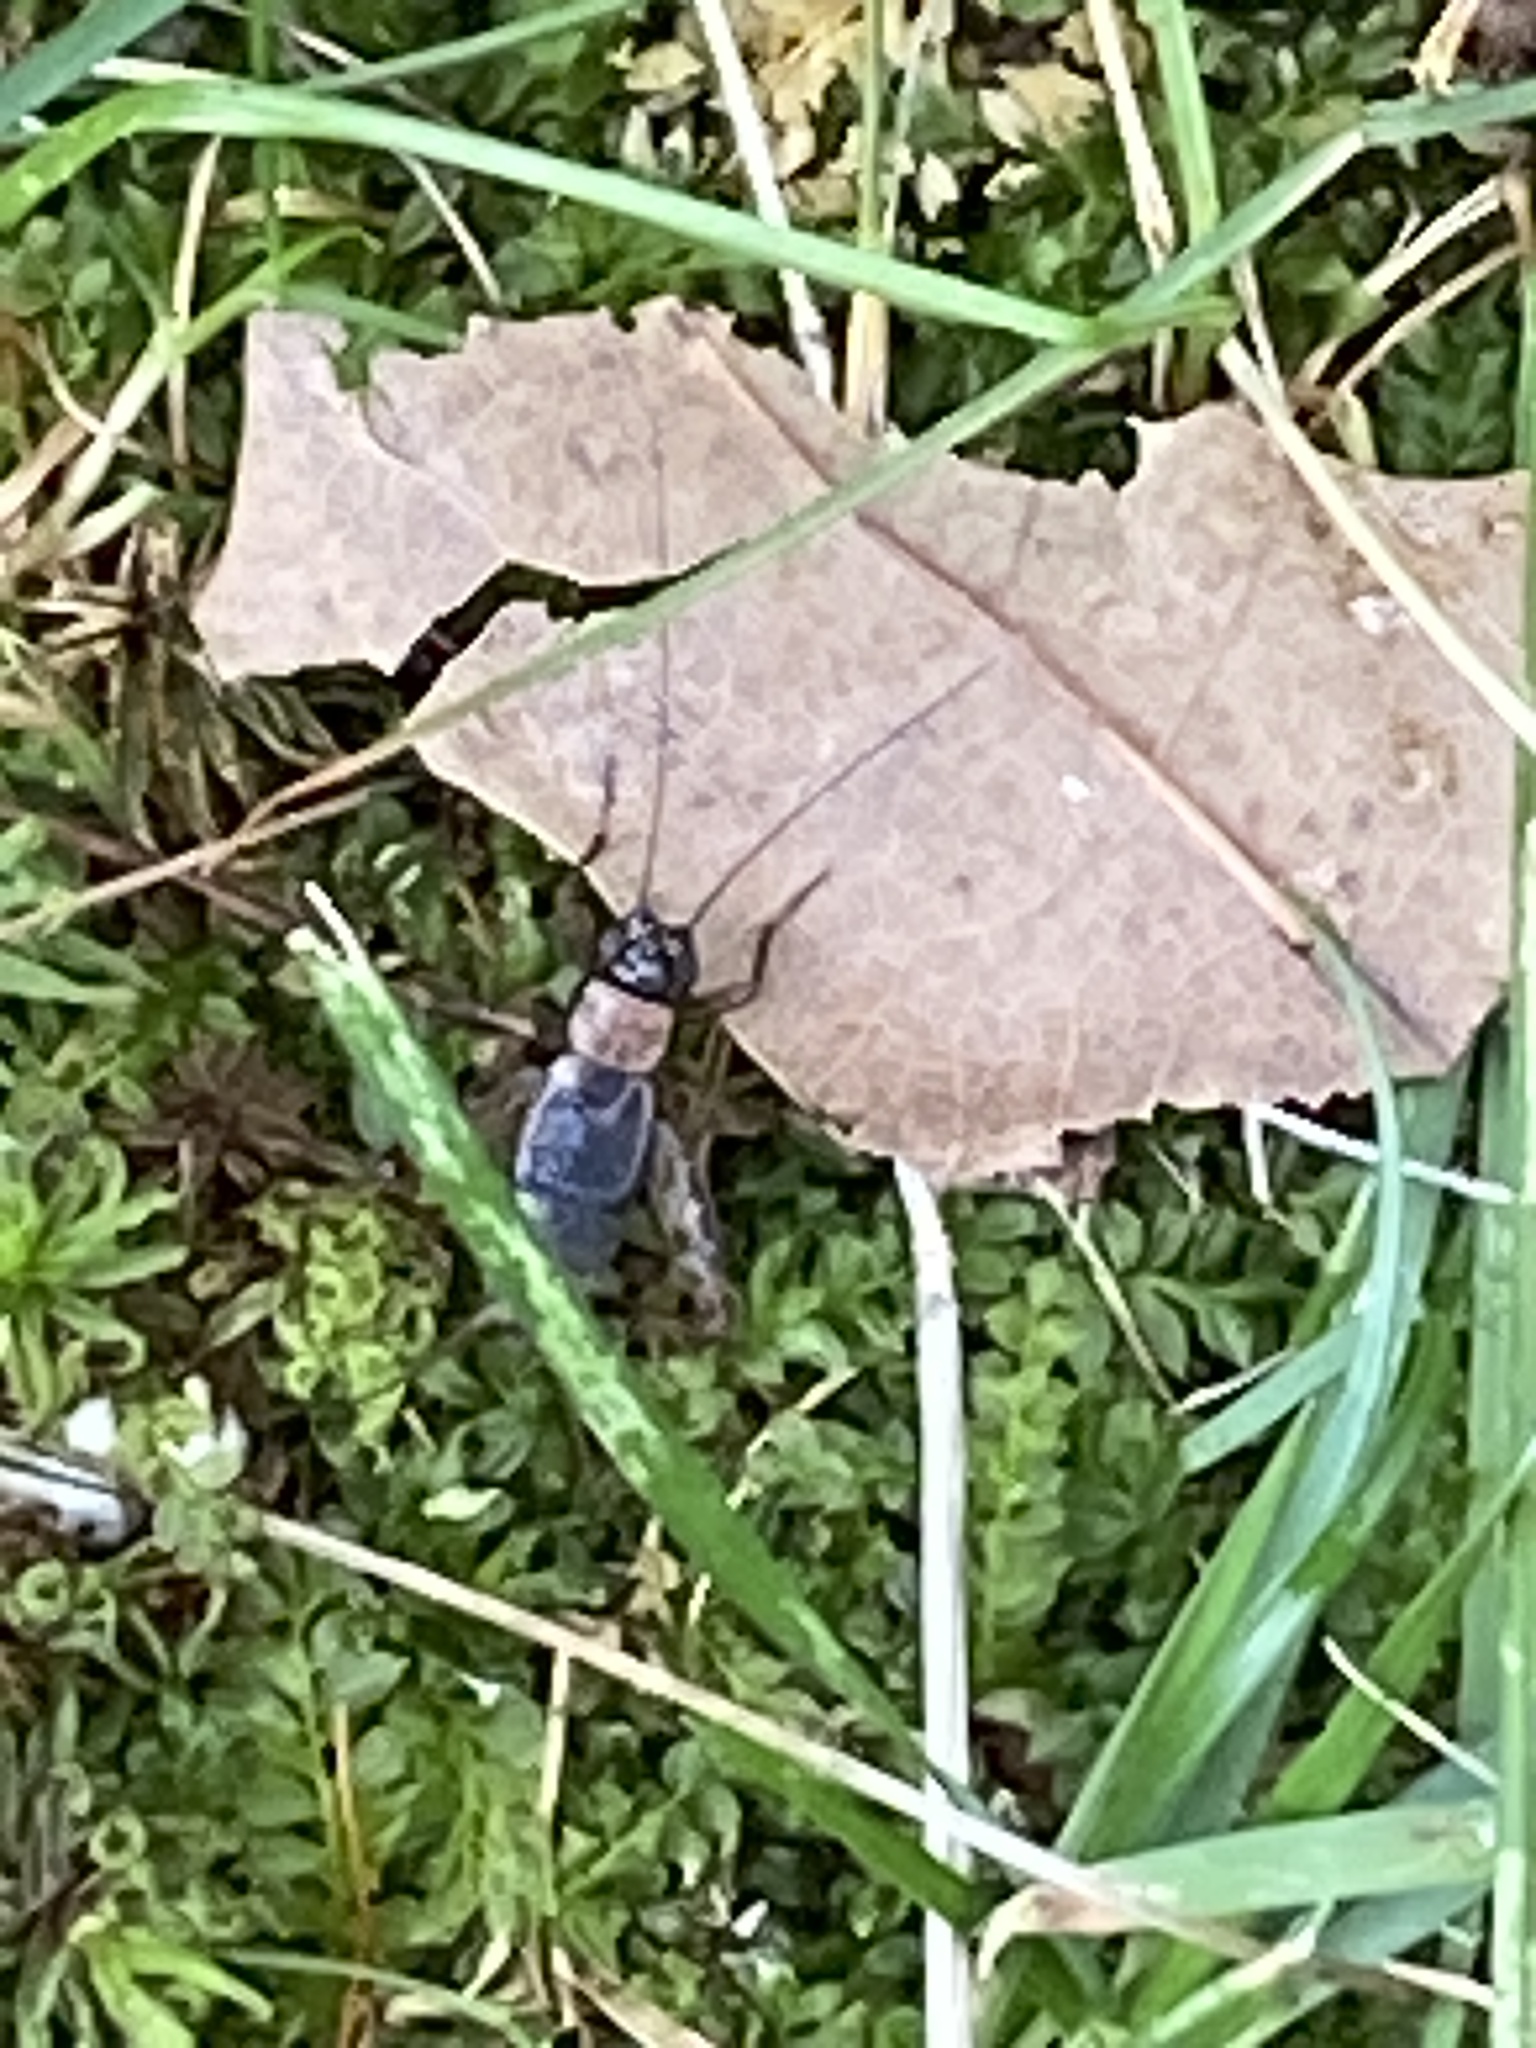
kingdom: Animalia
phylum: Arthropoda
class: Insecta
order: Orthoptera
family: Trigonidiidae
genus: Nemobius
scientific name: Nemobius sylvestris
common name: Wood-cricket
